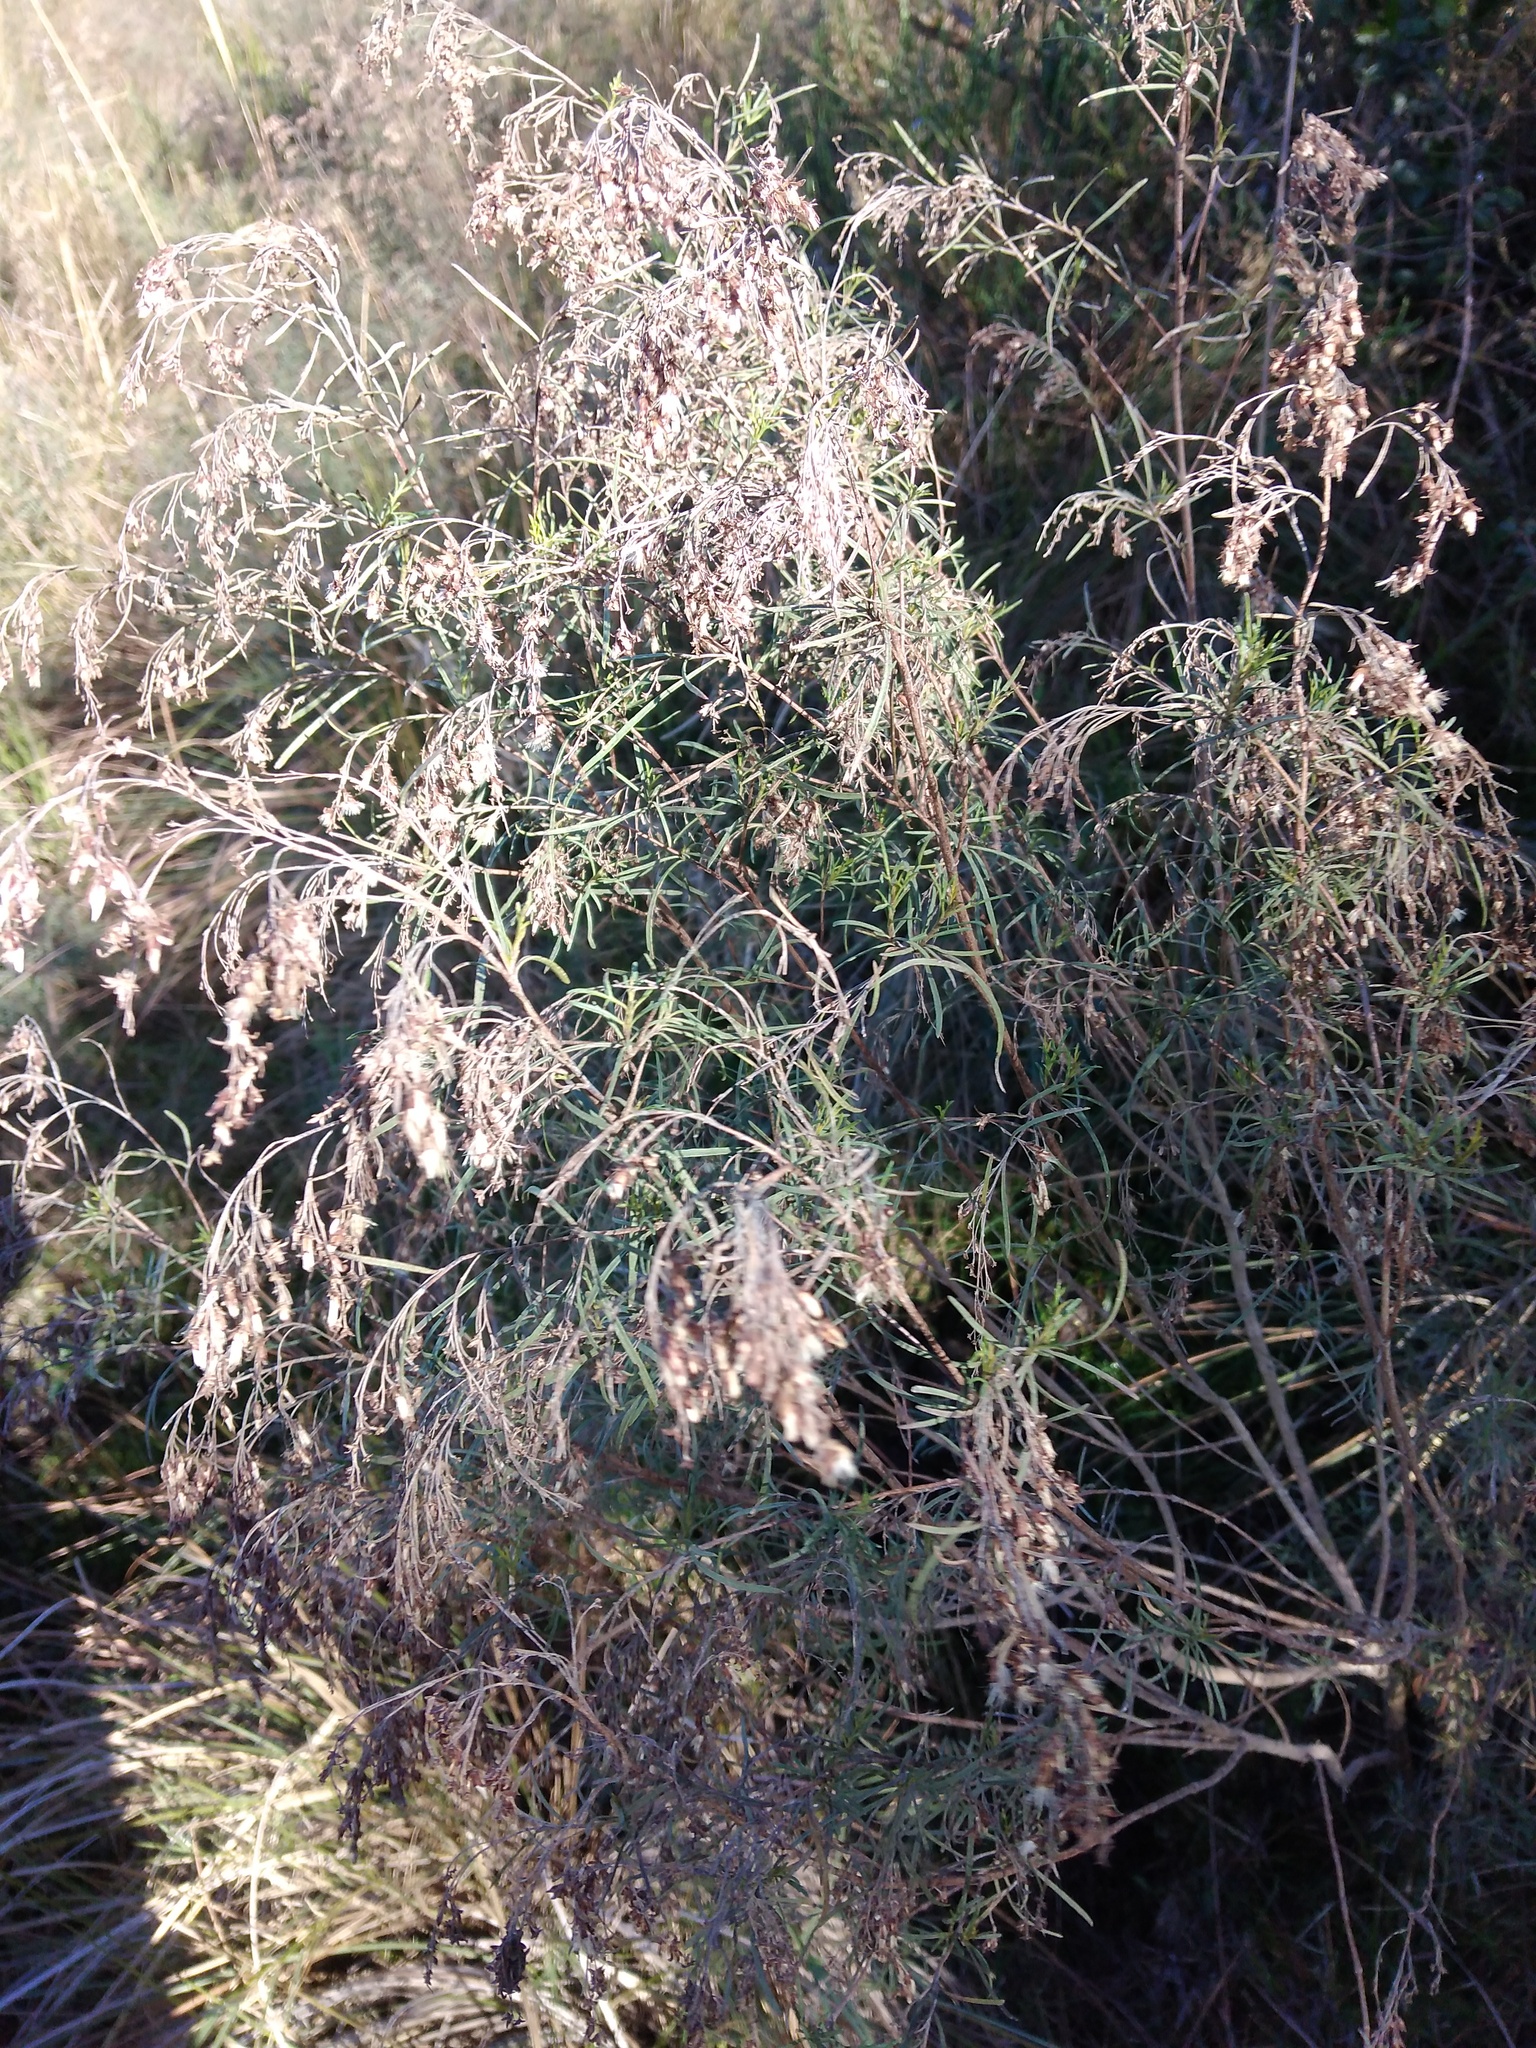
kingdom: Plantae
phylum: Tracheophyta
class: Magnoliopsida
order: Asterales
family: Asteraceae
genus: Acanthostyles
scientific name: Acanthostyles buniifolius
